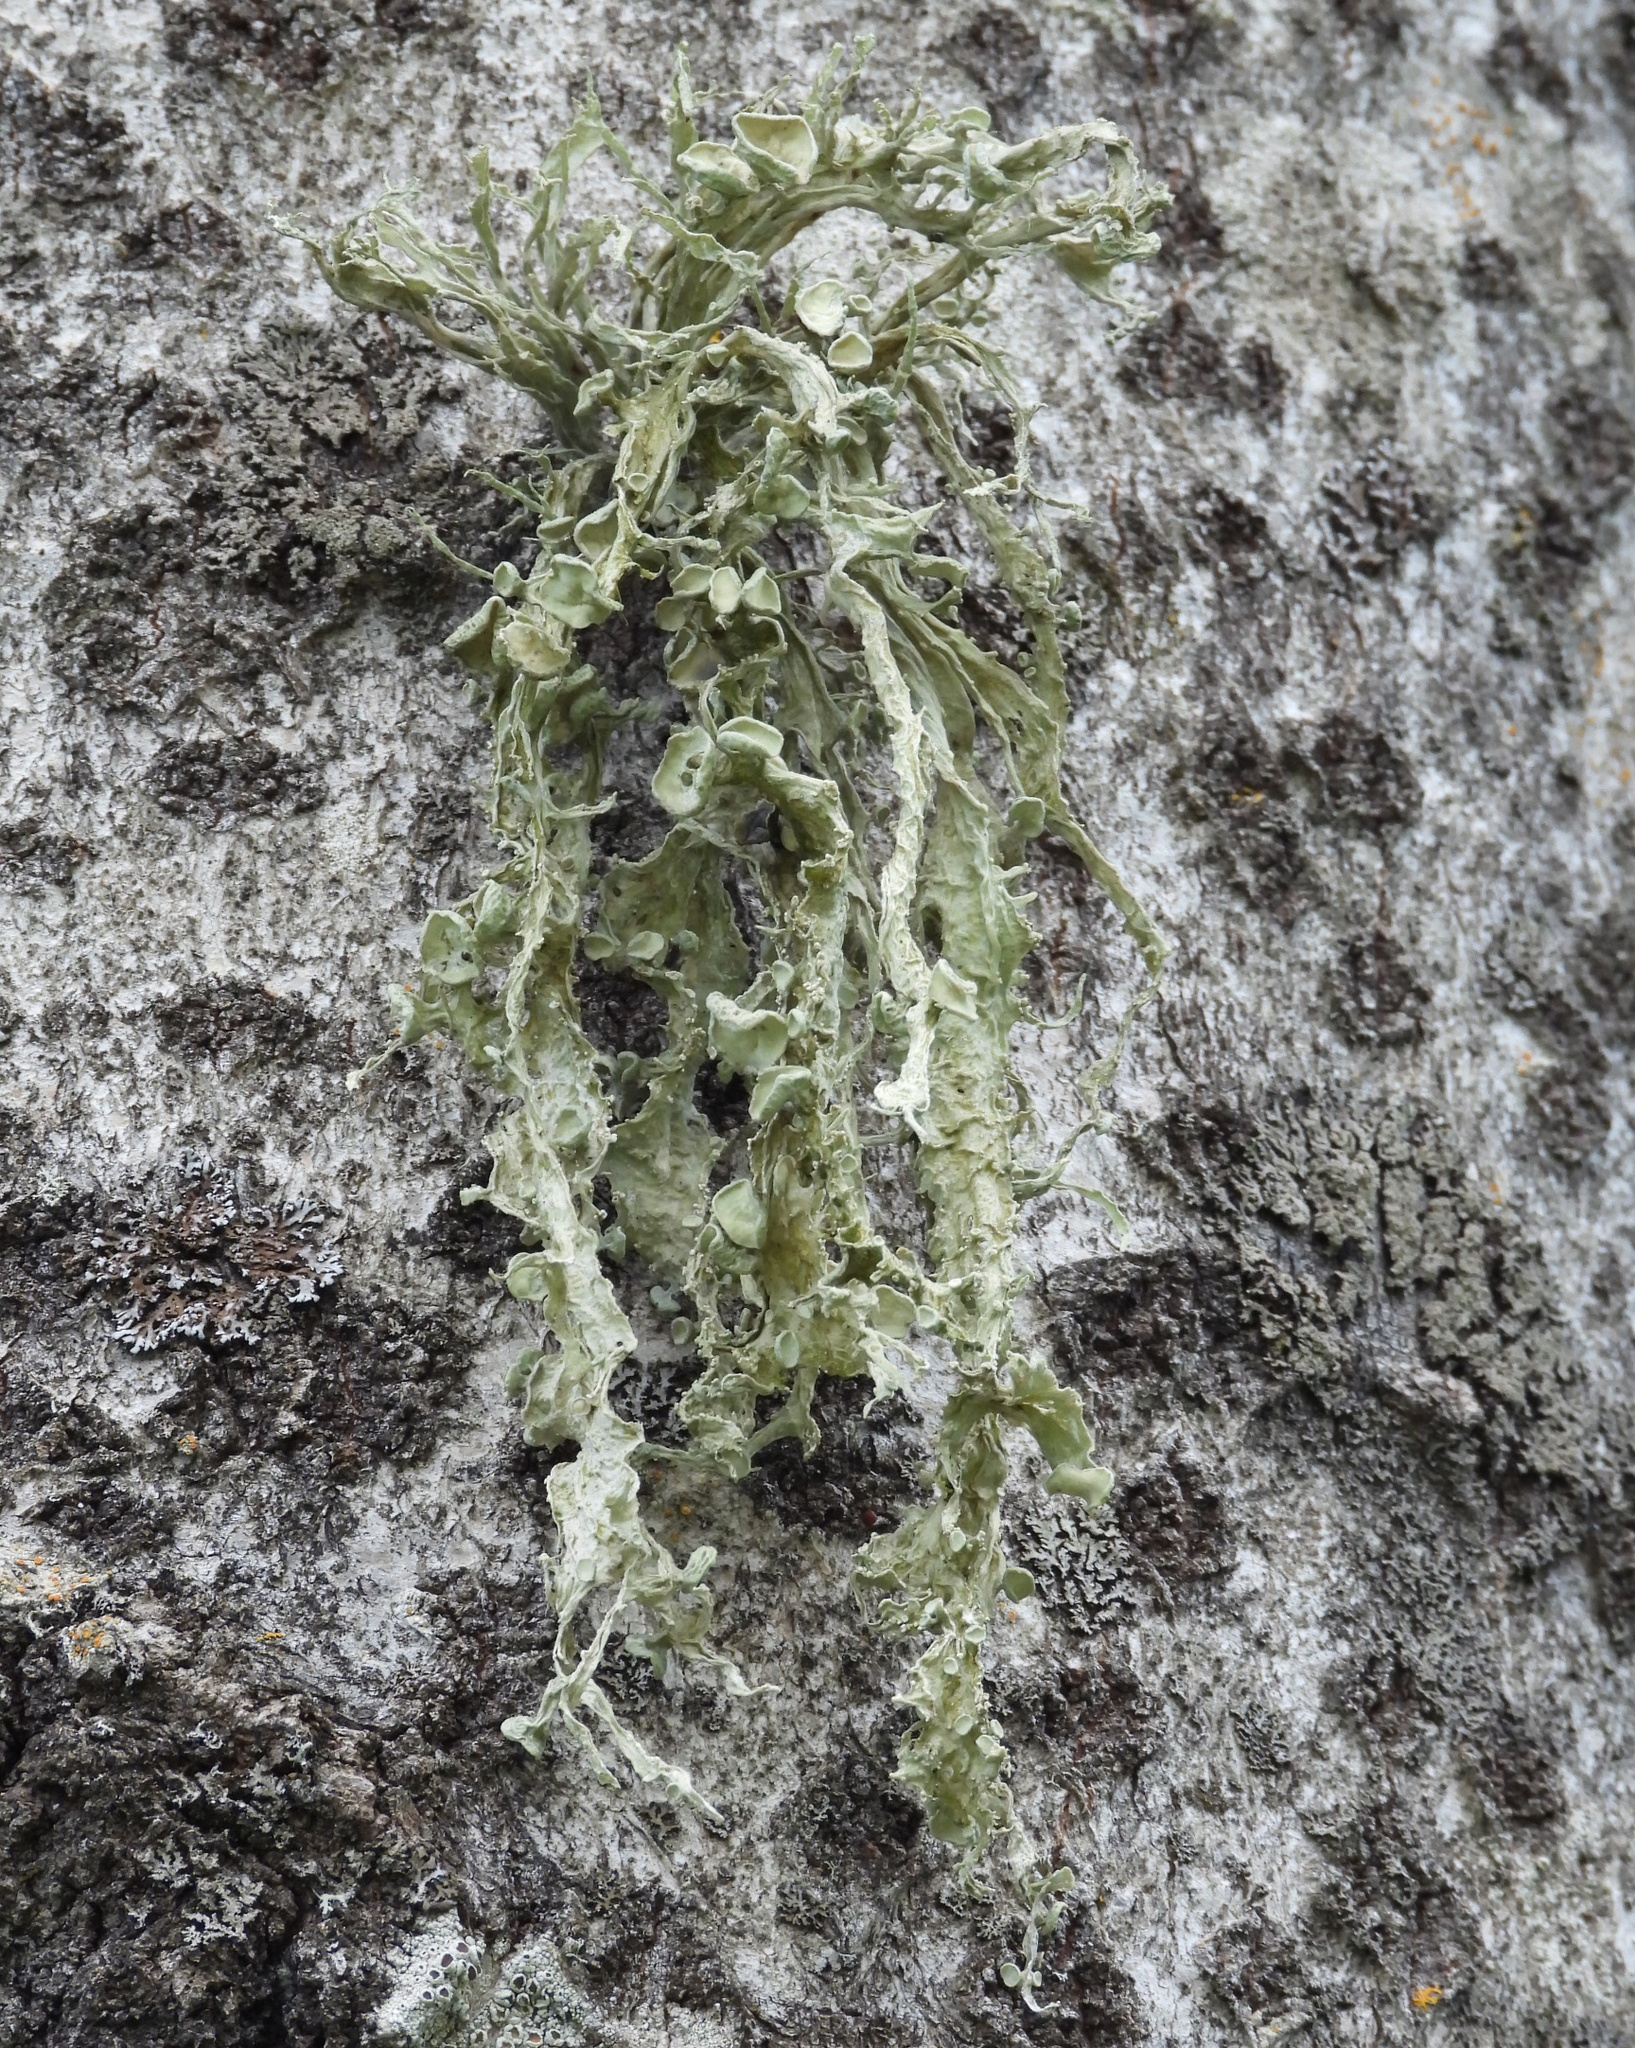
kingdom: Fungi
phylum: Ascomycota
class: Lecanoromycetes
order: Lecanorales
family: Ramalinaceae
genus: Ramalina
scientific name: Ramalina fraxinea
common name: Cartilage lichen
